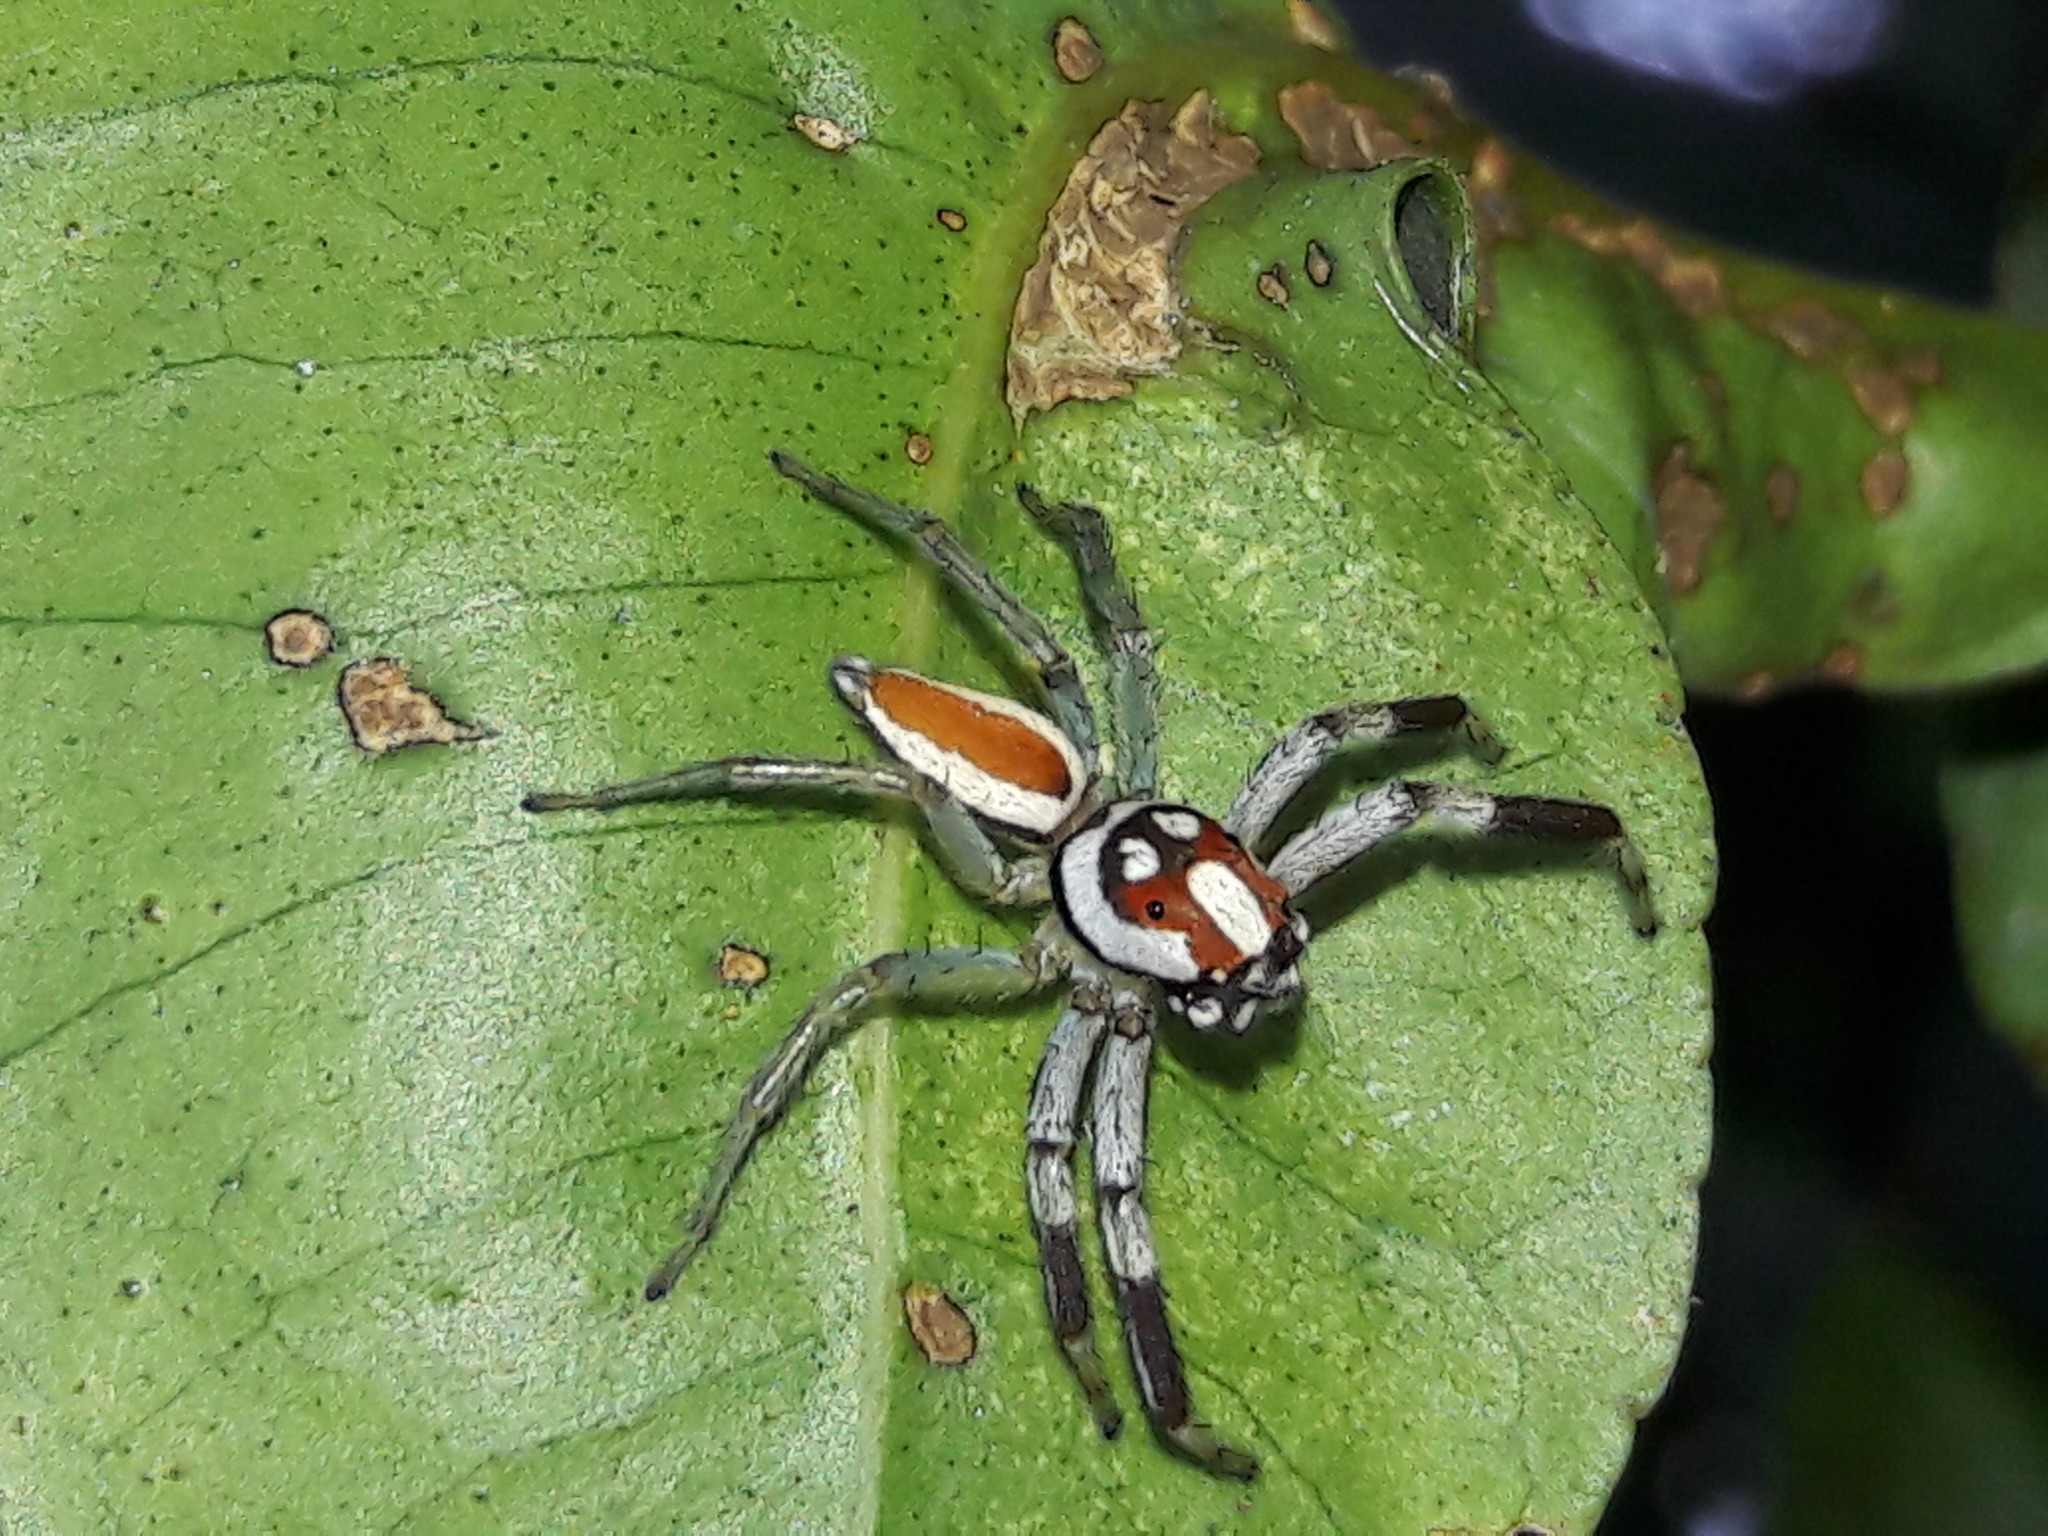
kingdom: Animalia
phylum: Arthropoda
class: Arachnida
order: Araneae
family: Salticidae
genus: Chira
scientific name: Chira guianensis
